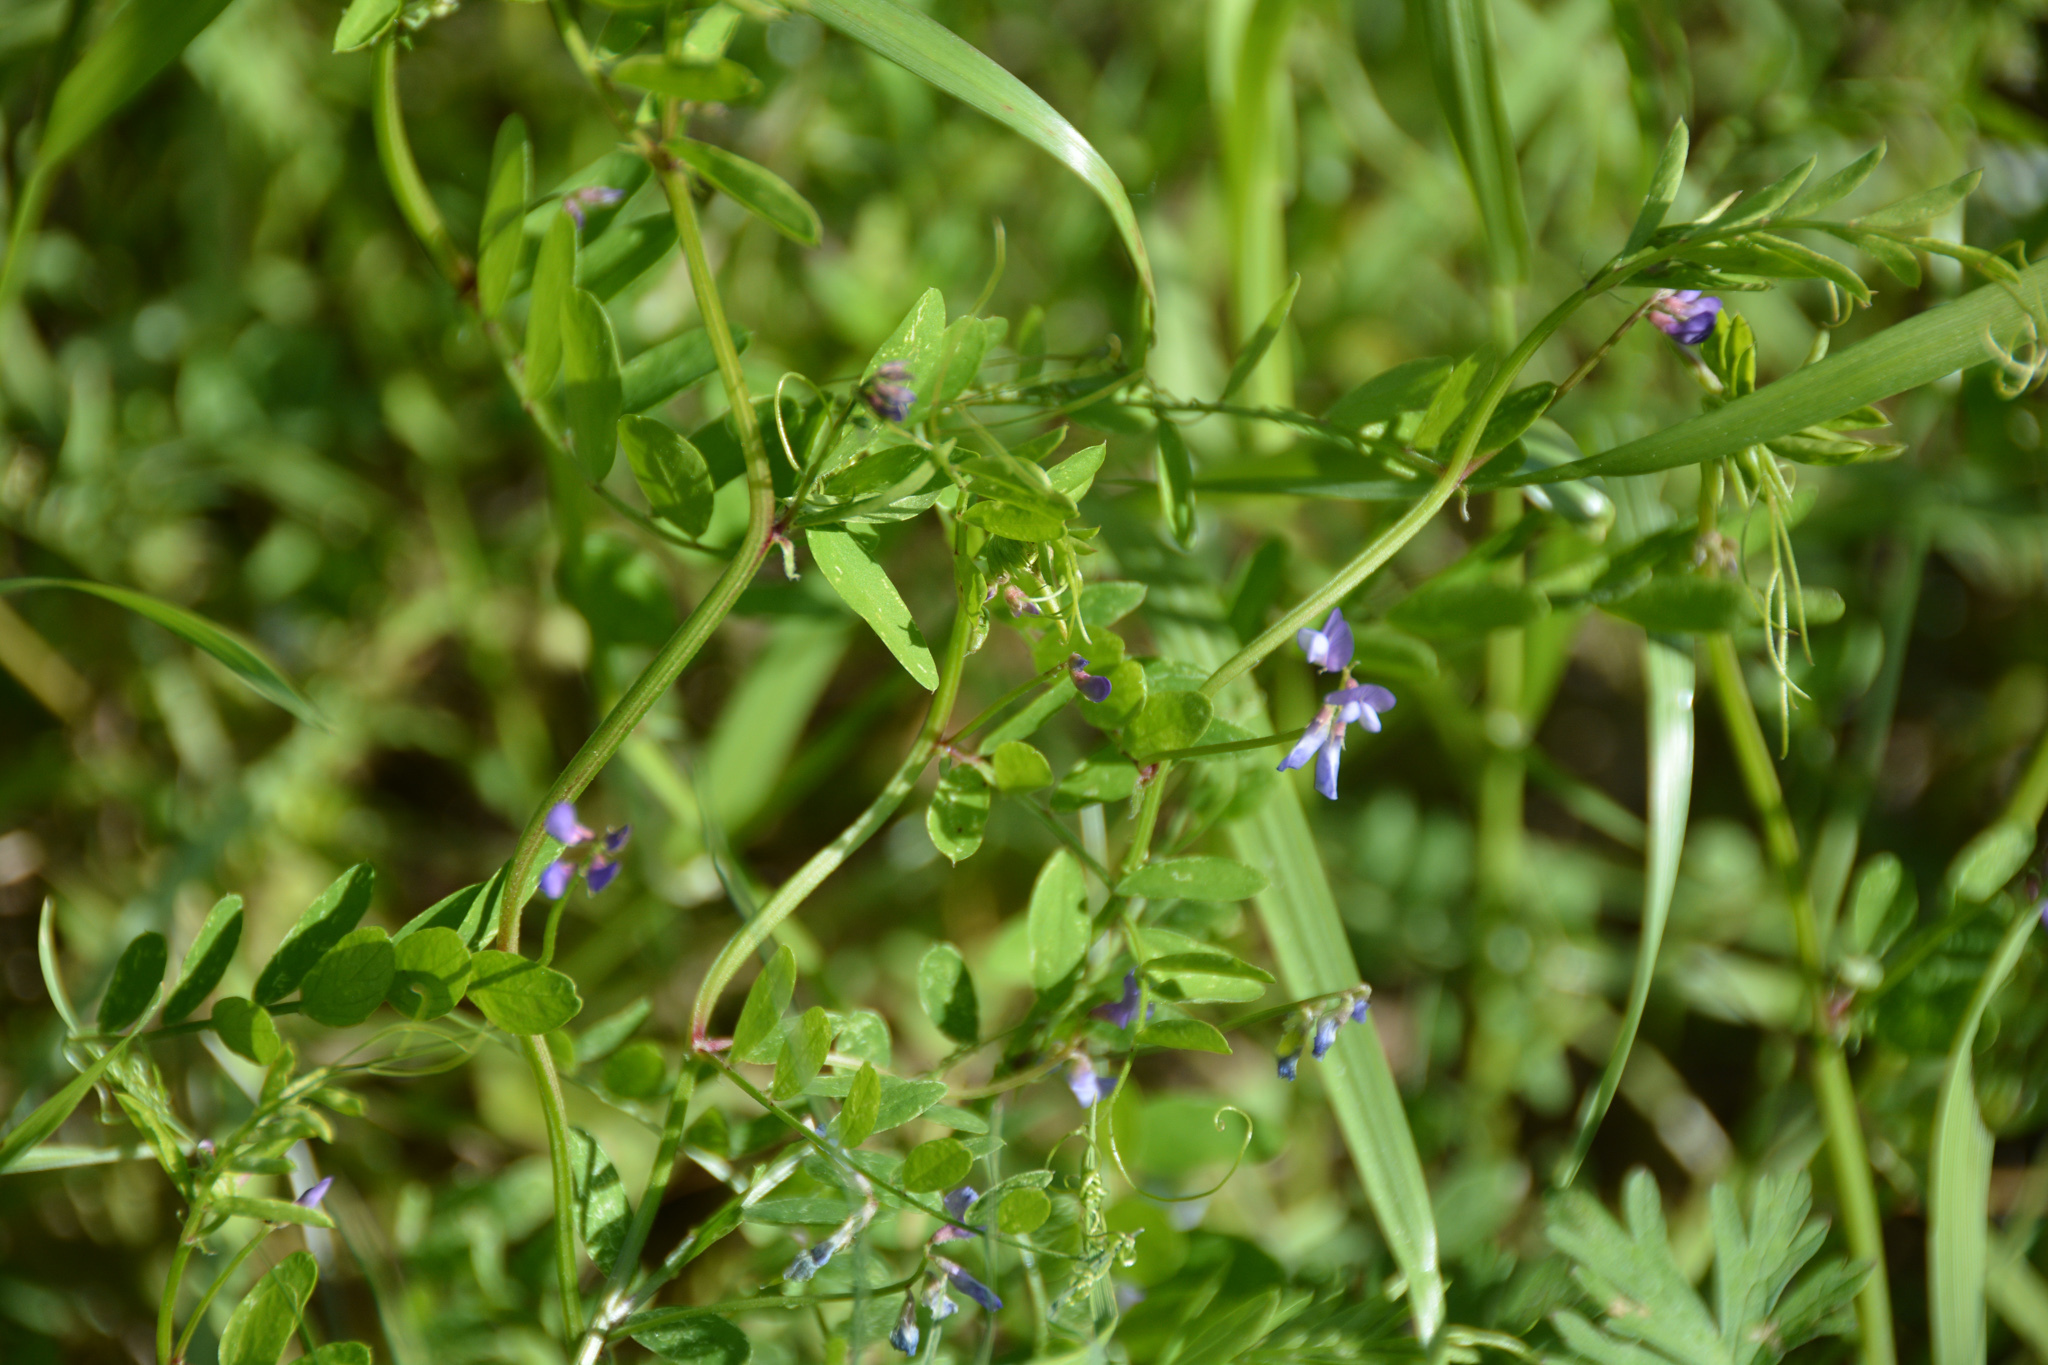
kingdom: Plantae
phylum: Tracheophyta
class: Magnoliopsida
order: Fabales
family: Fabaceae
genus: Vicia
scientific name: Vicia ludoviciana
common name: Louisiana vetch
